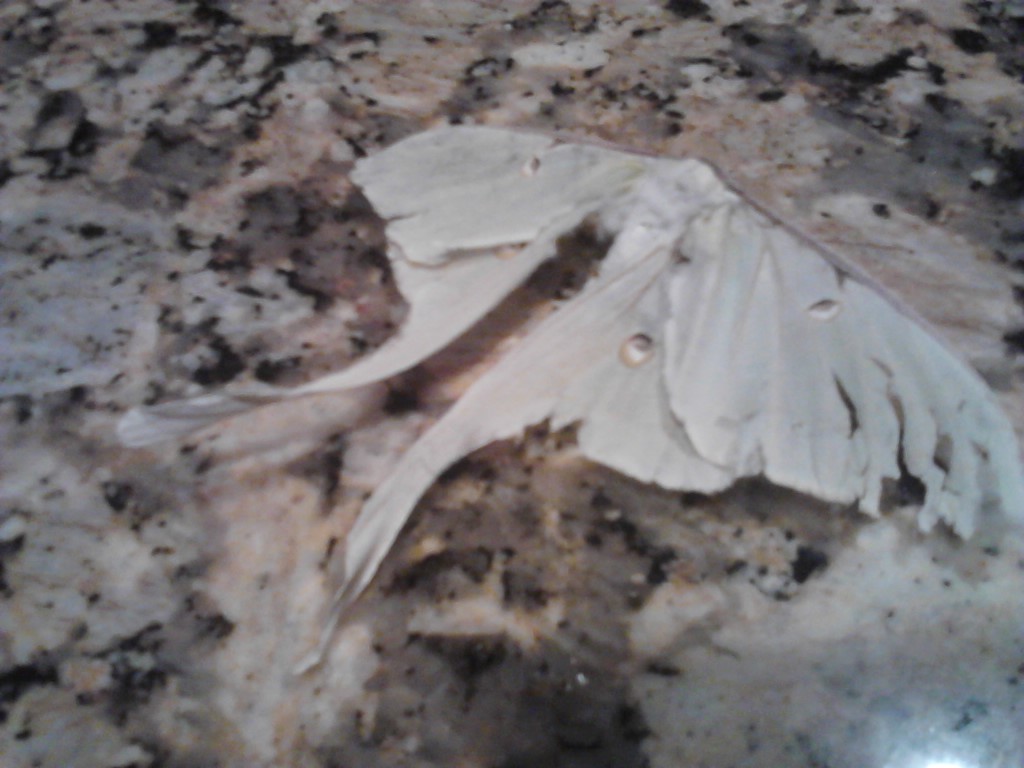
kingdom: Animalia
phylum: Arthropoda
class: Insecta
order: Lepidoptera
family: Saturniidae
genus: Actias
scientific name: Actias luna
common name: Luna moth
